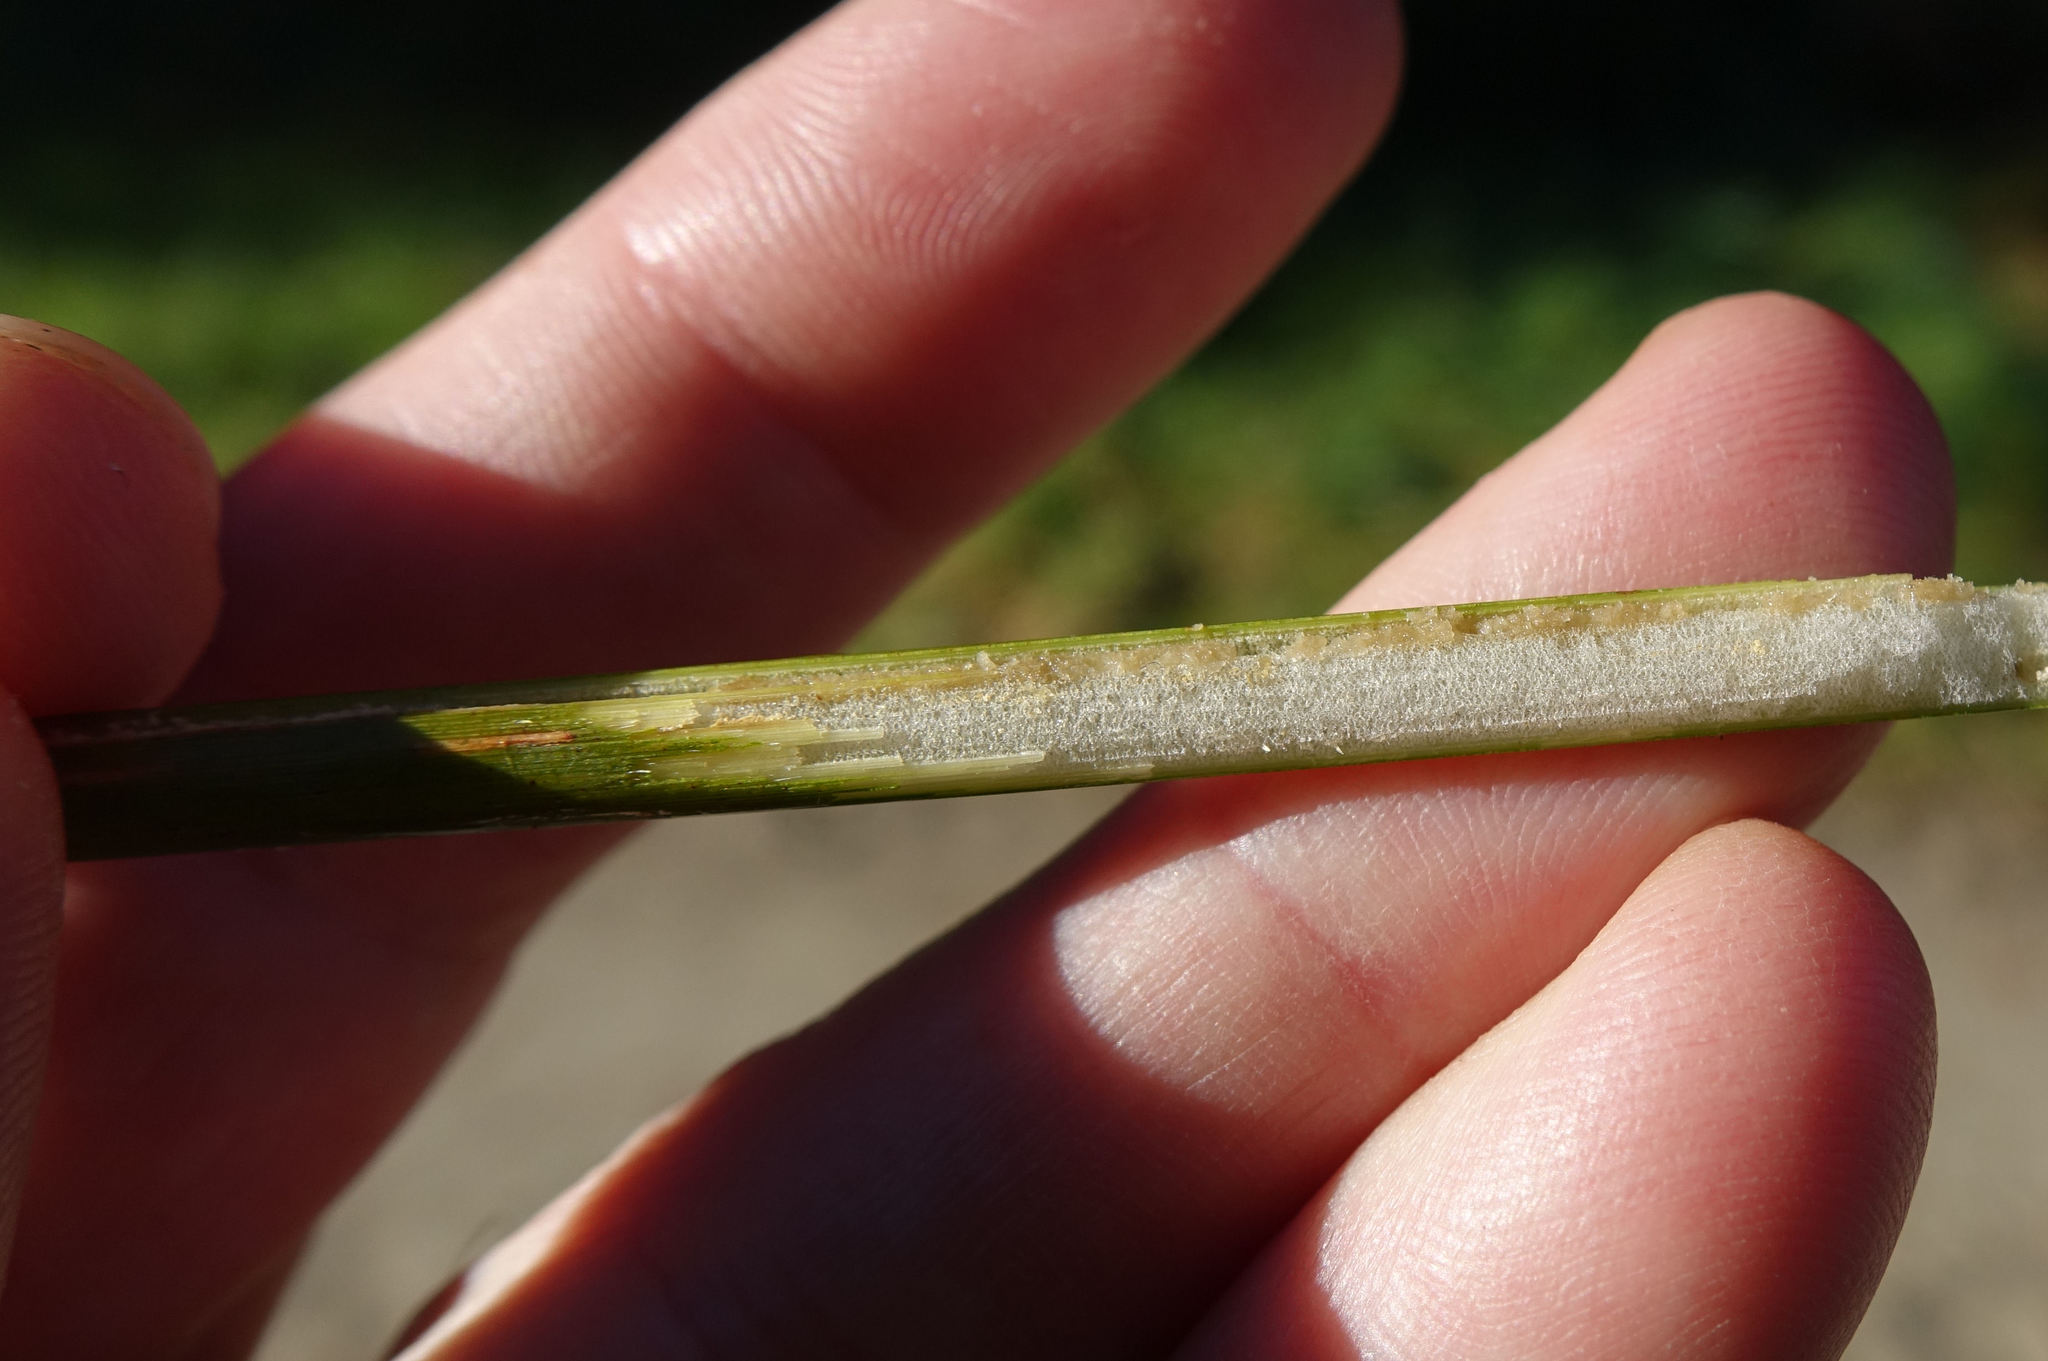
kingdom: Plantae
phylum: Tracheophyta
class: Liliopsida
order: Poales
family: Juncaceae
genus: Juncus
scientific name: Juncus pallidus
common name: Great soft-rush
